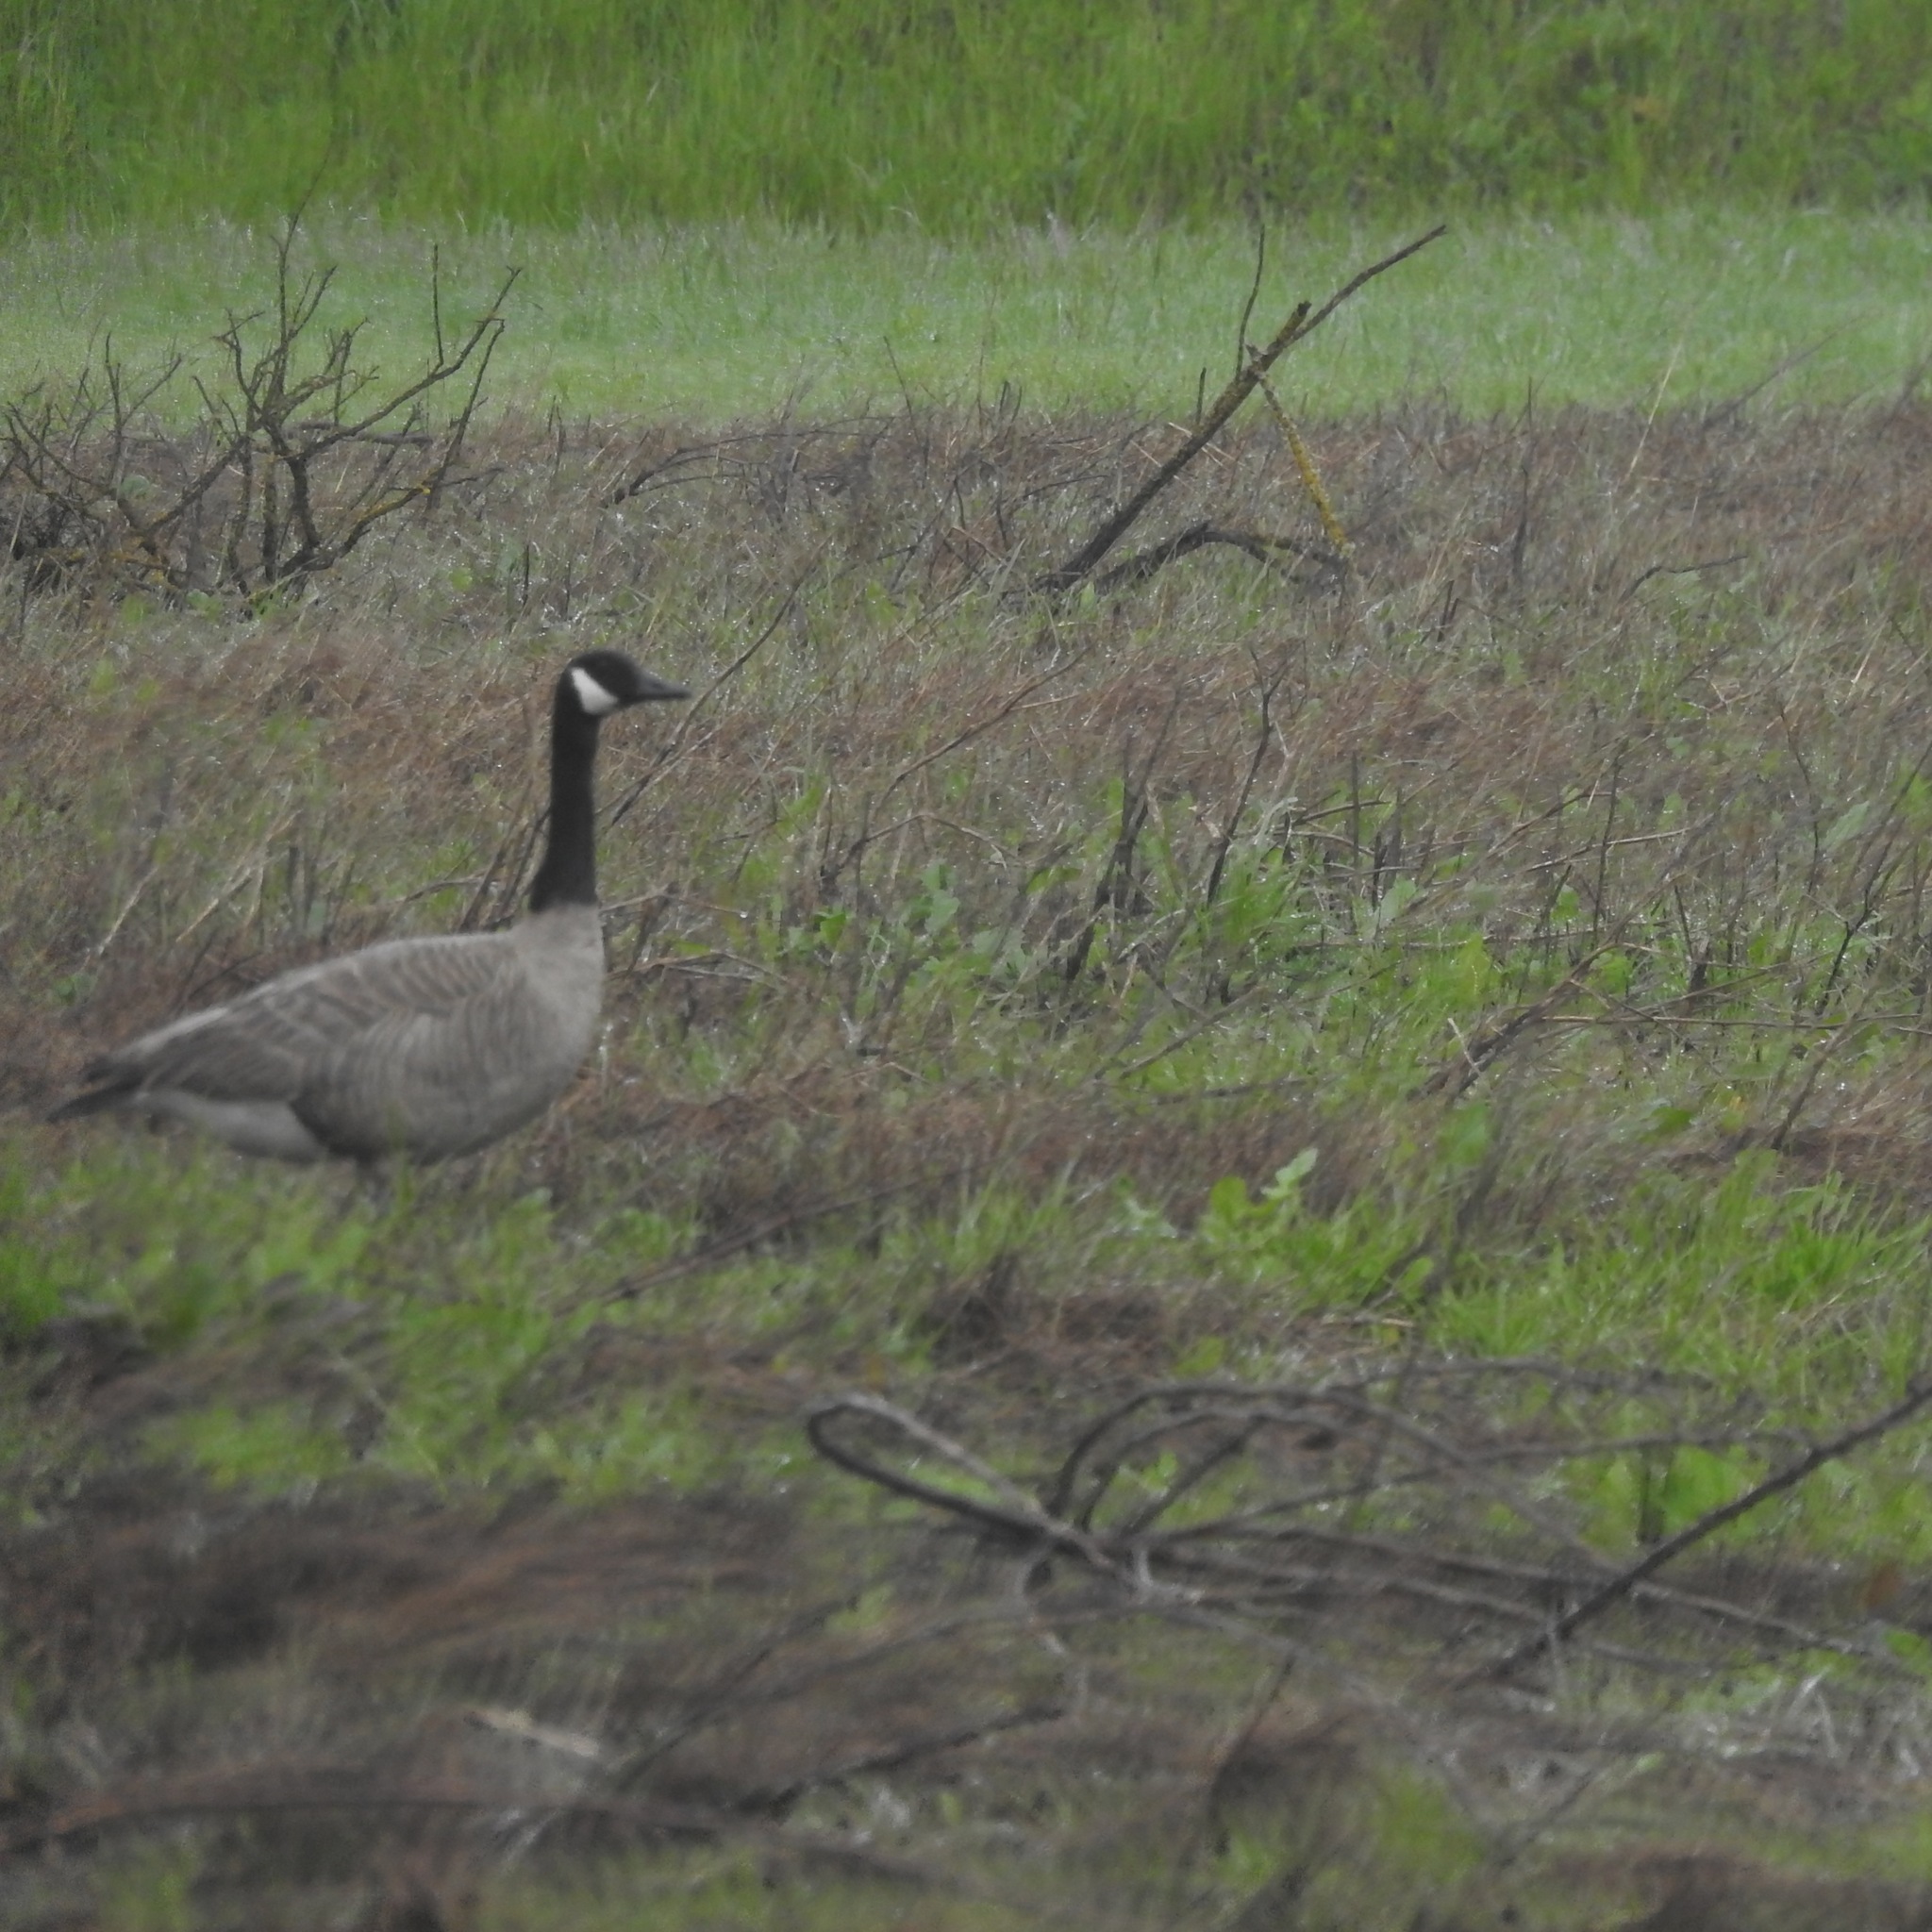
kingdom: Animalia
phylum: Chordata
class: Aves
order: Anseriformes
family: Anatidae
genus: Branta
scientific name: Branta canadensis
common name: Canada goose
